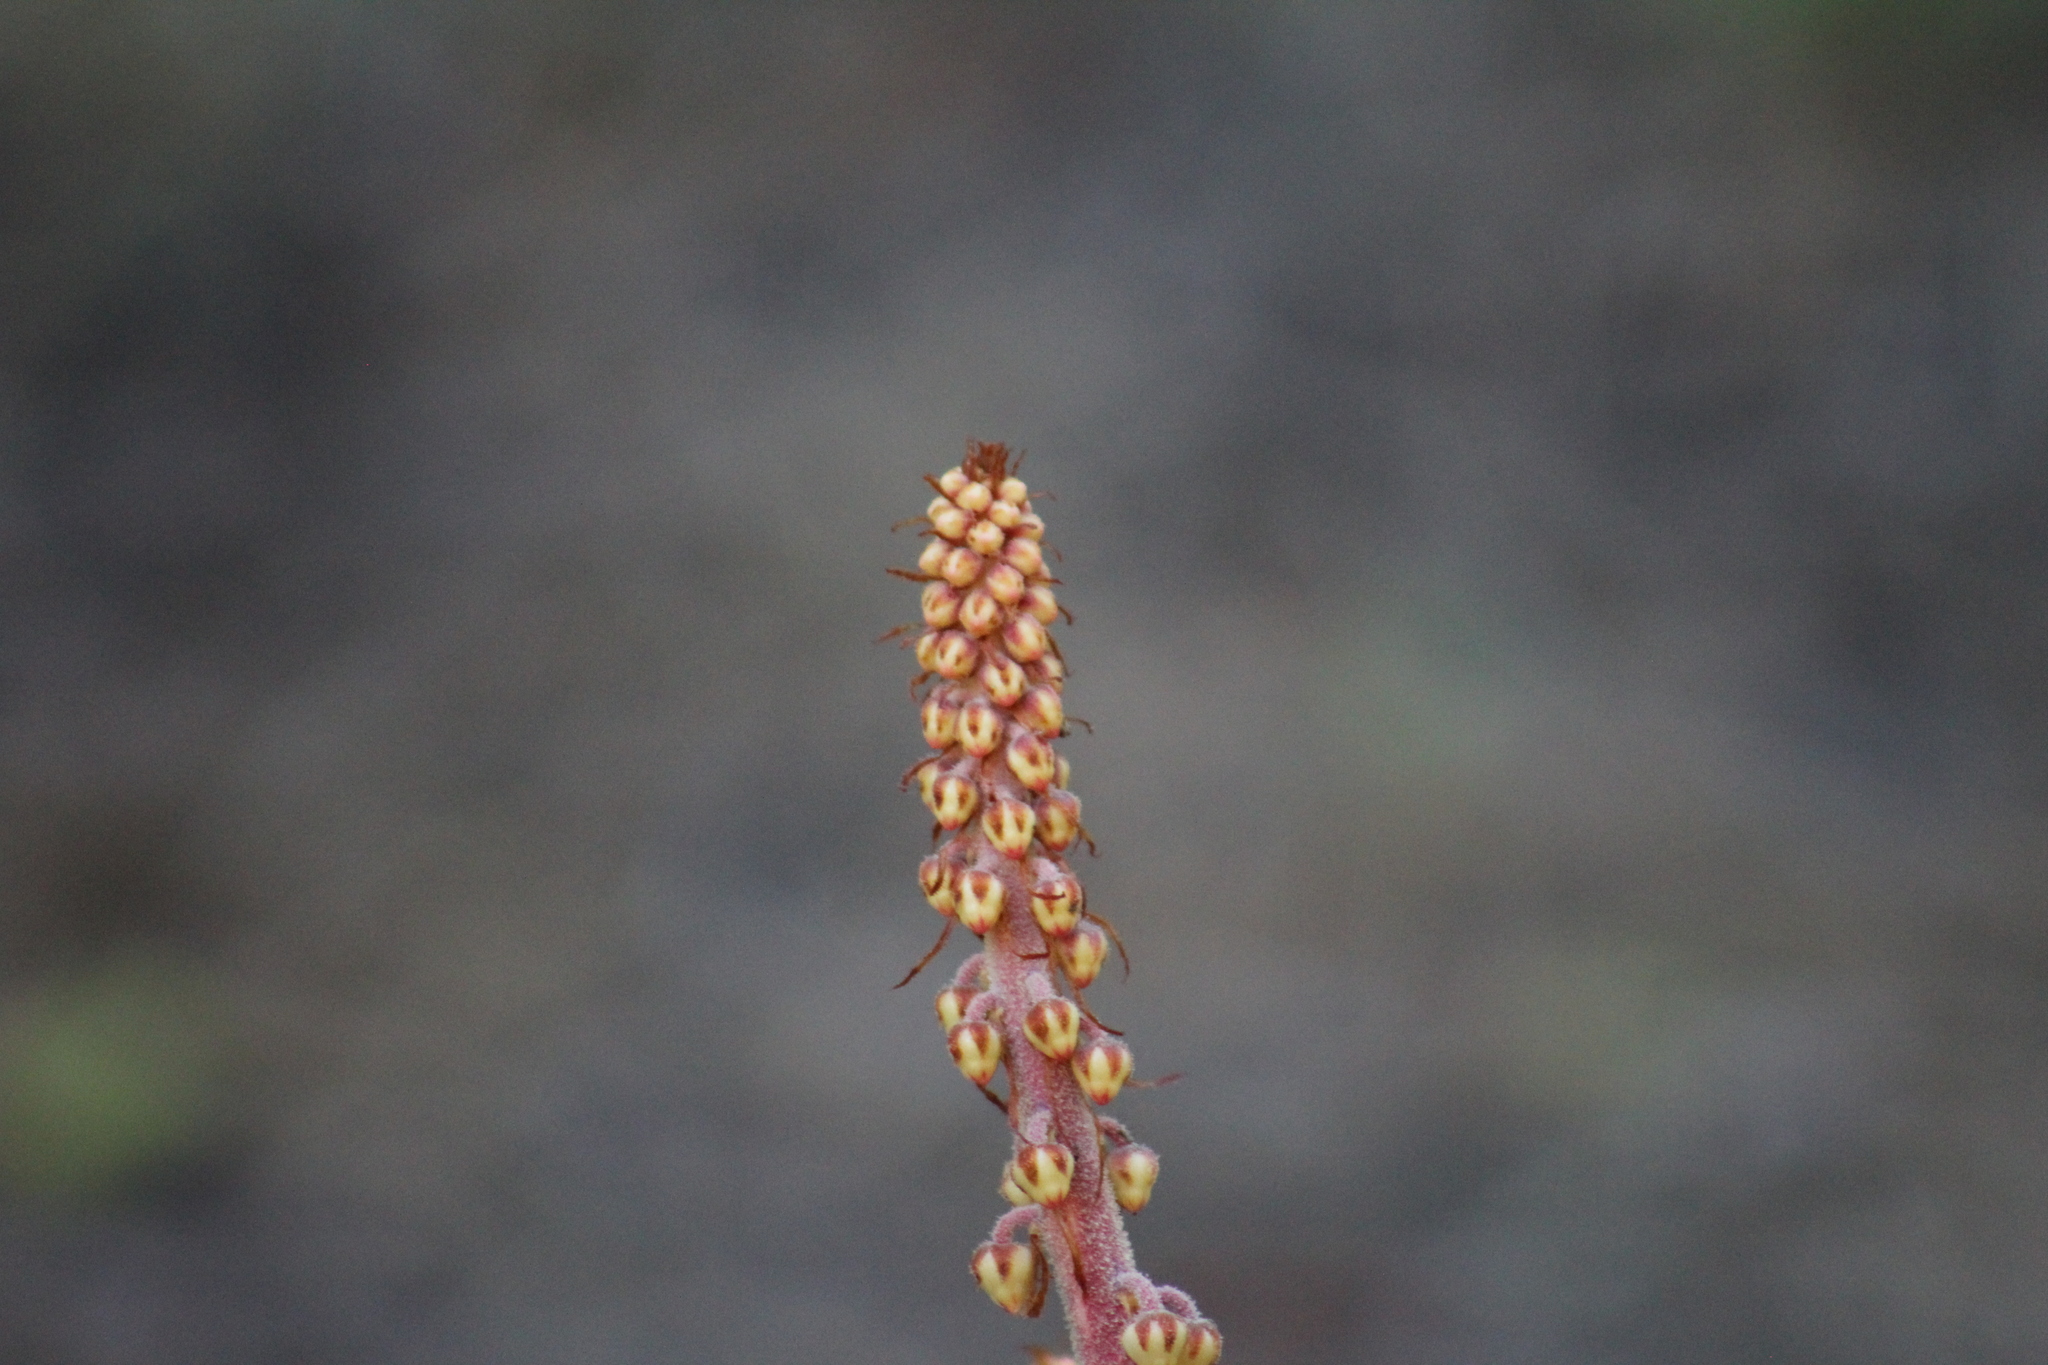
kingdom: Plantae
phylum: Tracheophyta
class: Magnoliopsida
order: Ericales
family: Ericaceae
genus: Pterospora
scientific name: Pterospora andromedea
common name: Giant bird's-nest
